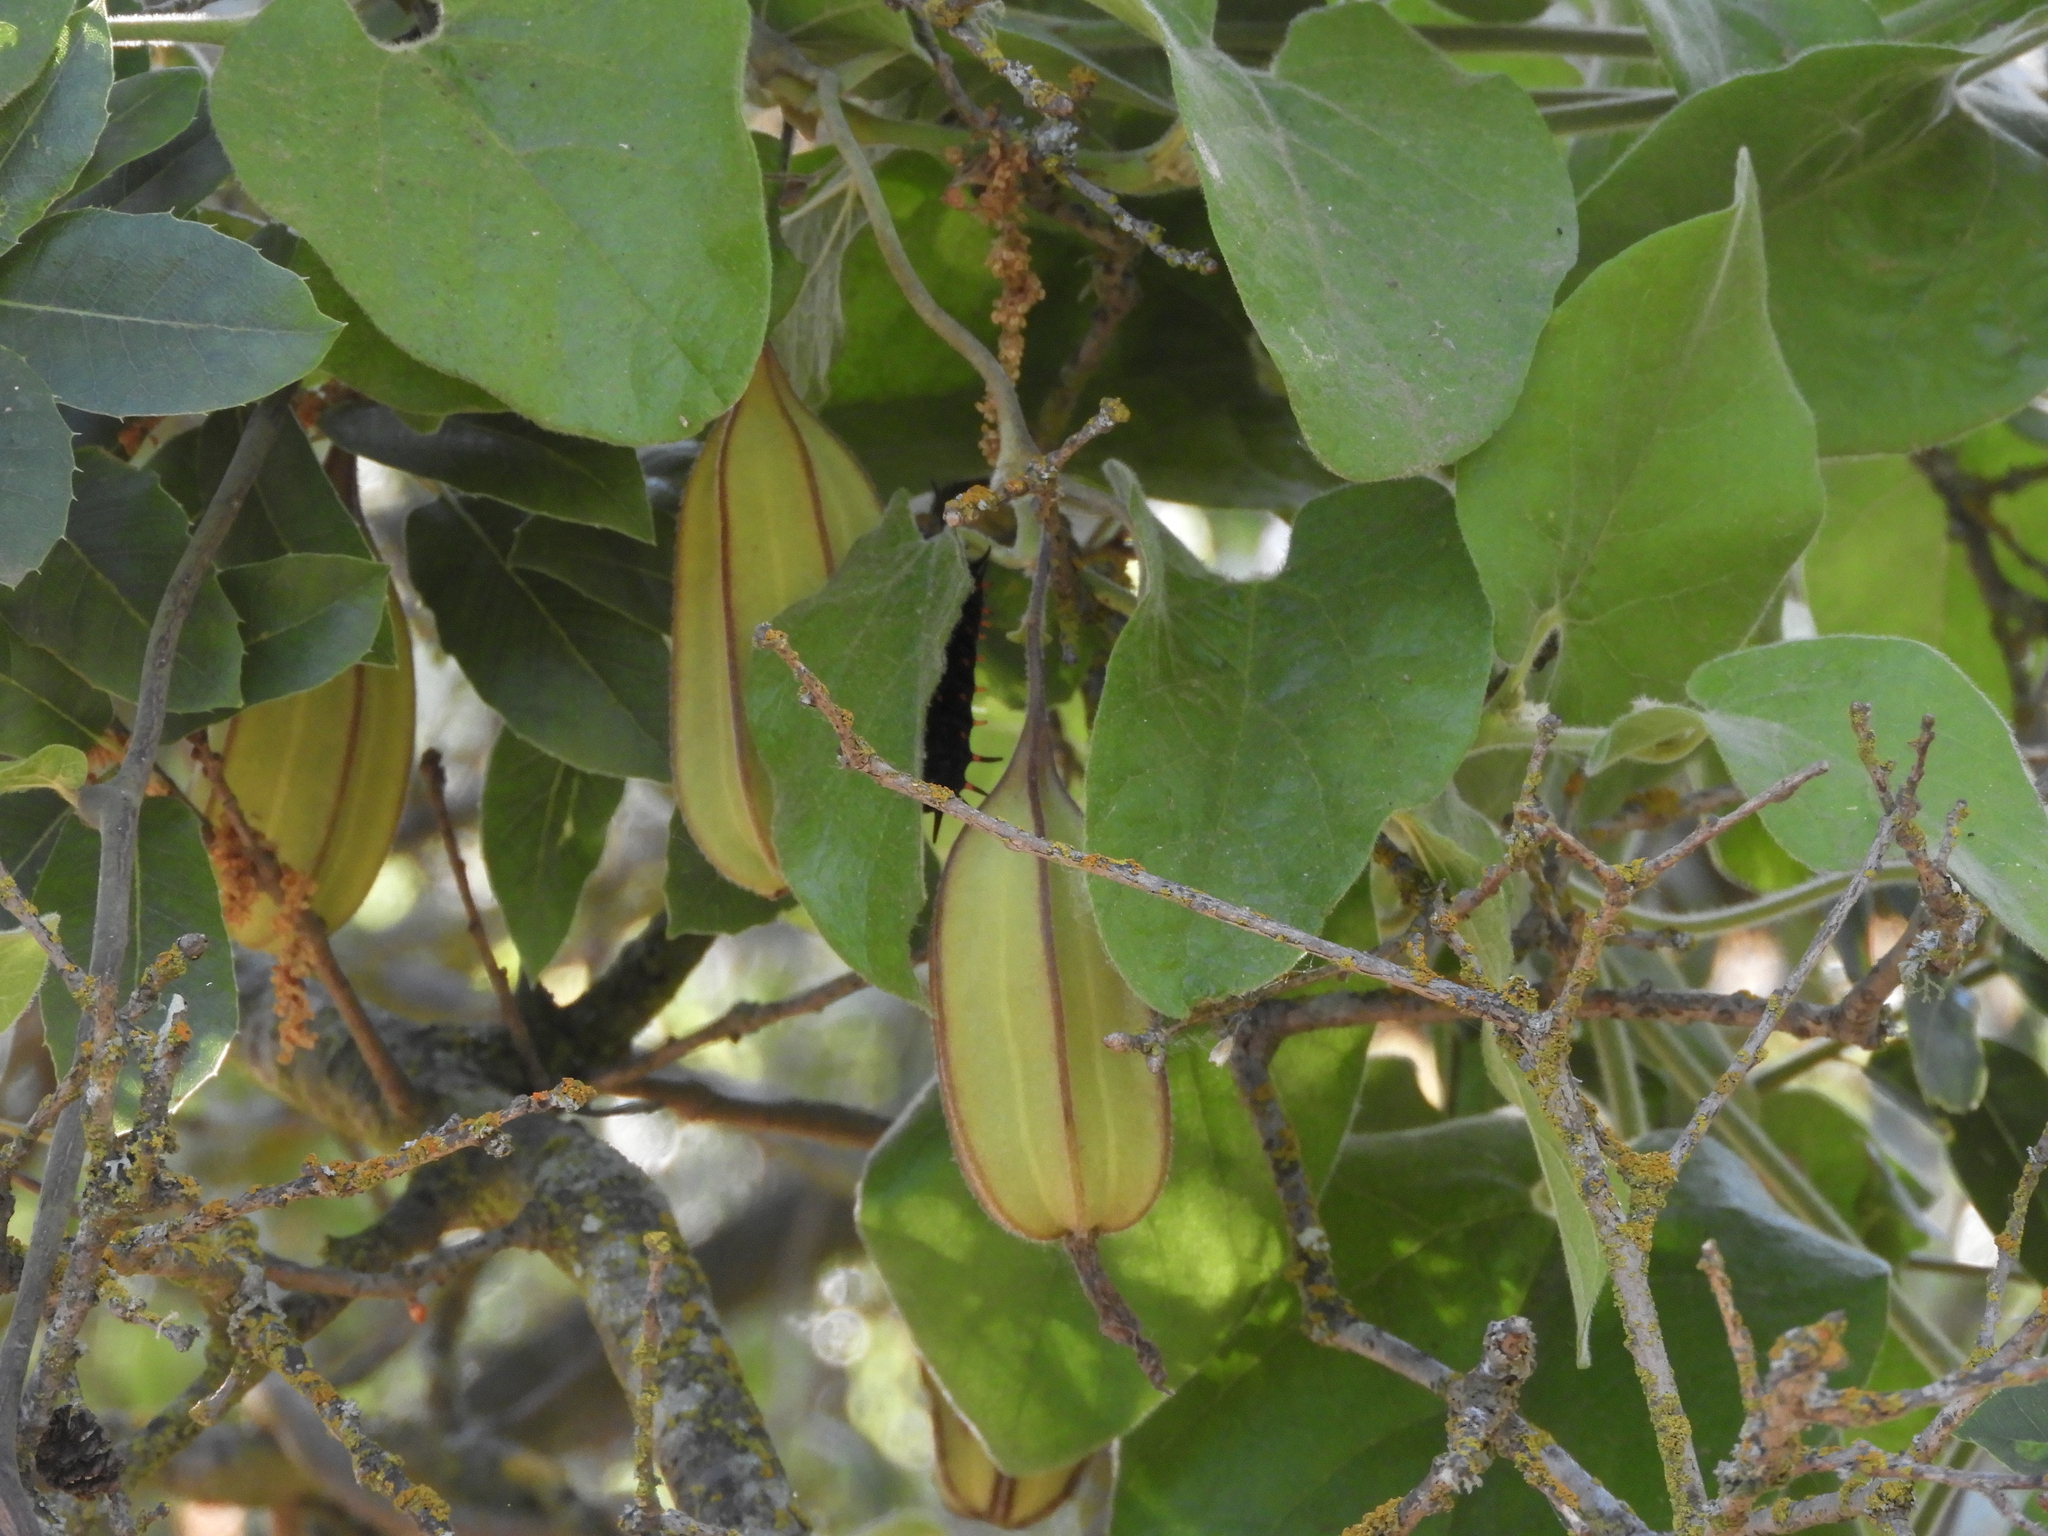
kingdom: Plantae
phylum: Tracheophyta
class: Magnoliopsida
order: Piperales
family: Aristolochiaceae
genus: Isotrema
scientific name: Isotrema californicum
